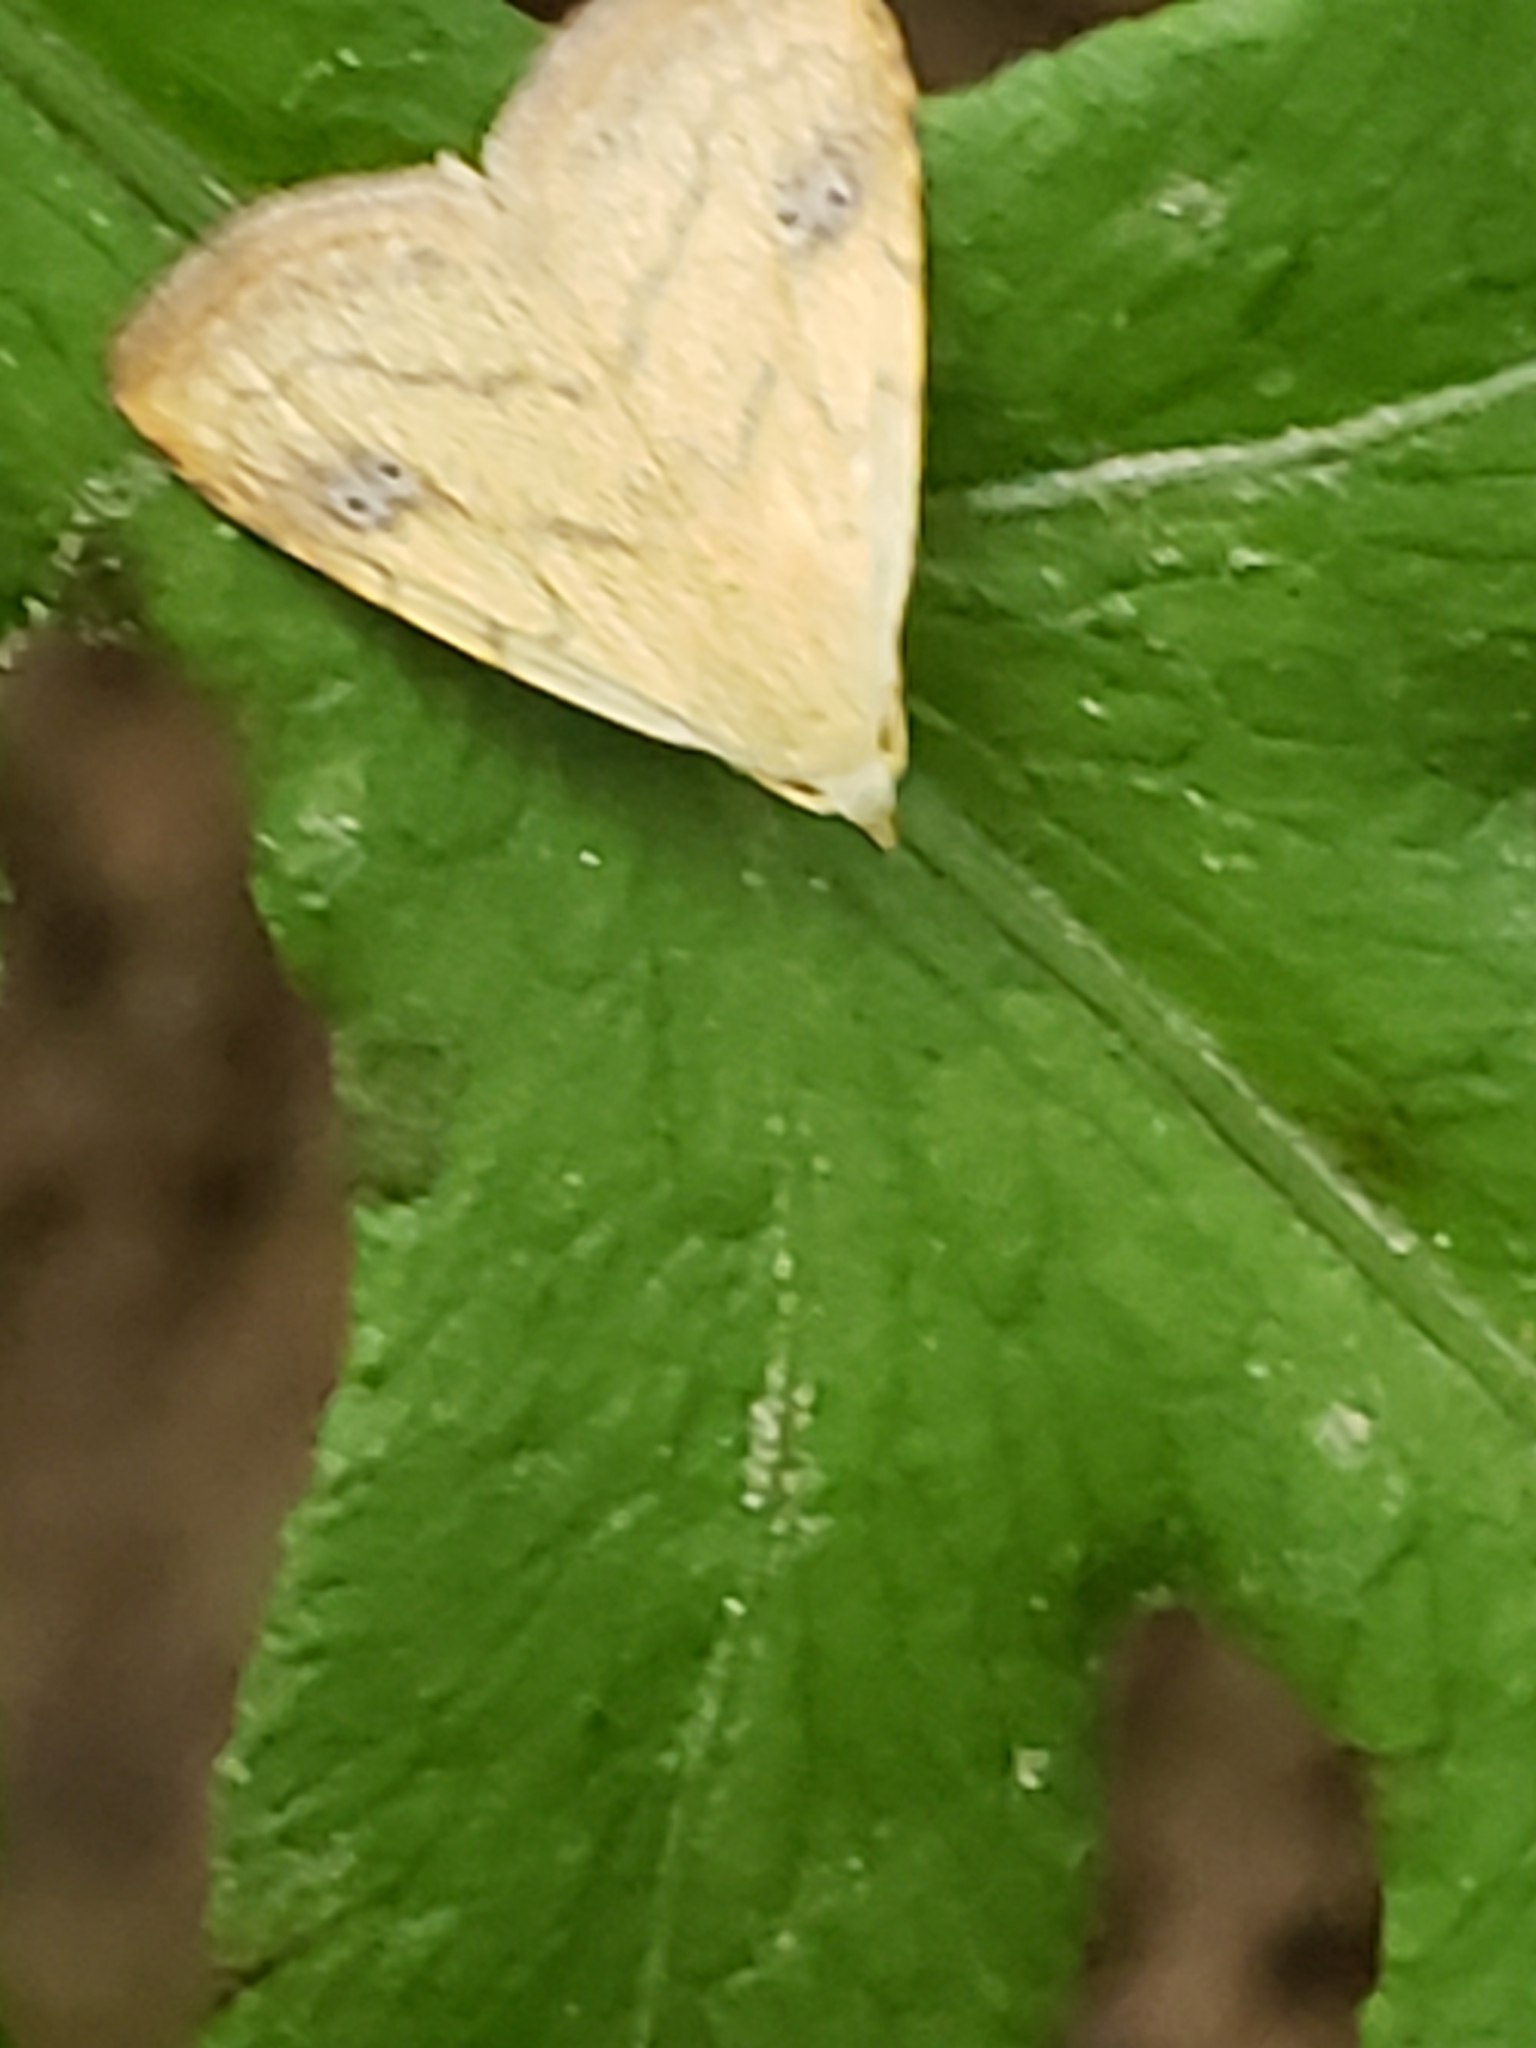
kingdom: Animalia
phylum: Arthropoda
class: Insecta
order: Lepidoptera
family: Erebidae
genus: Rivula
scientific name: Rivula propinqualis
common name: Spotted grass moth
